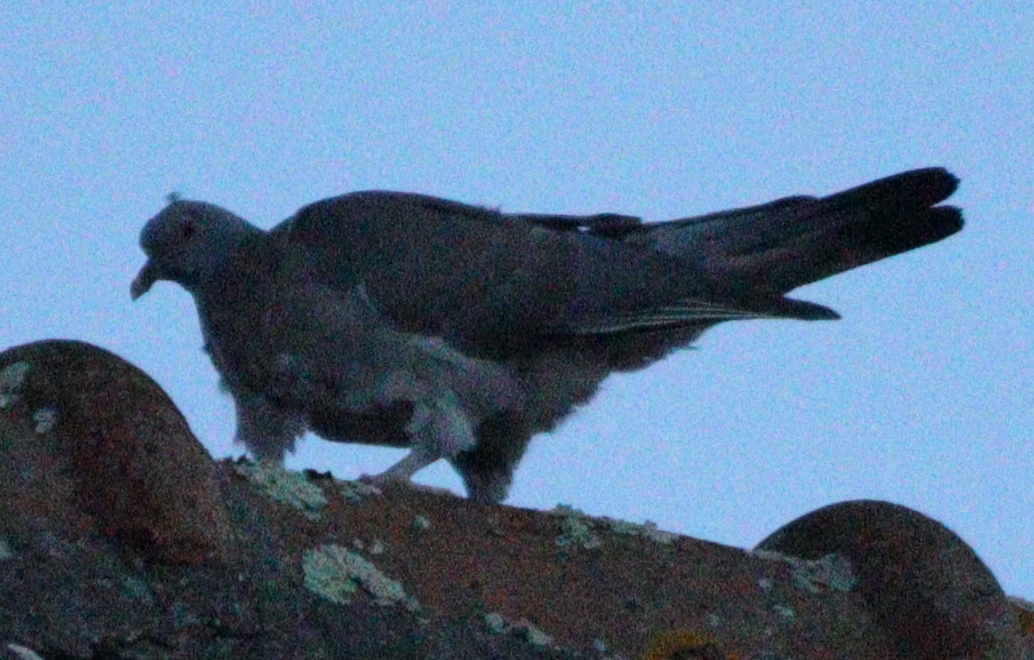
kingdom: Animalia
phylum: Chordata
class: Aves
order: Columbiformes
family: Columbidae
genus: Columba
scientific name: Columba palumbus
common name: Common wood pigeon
